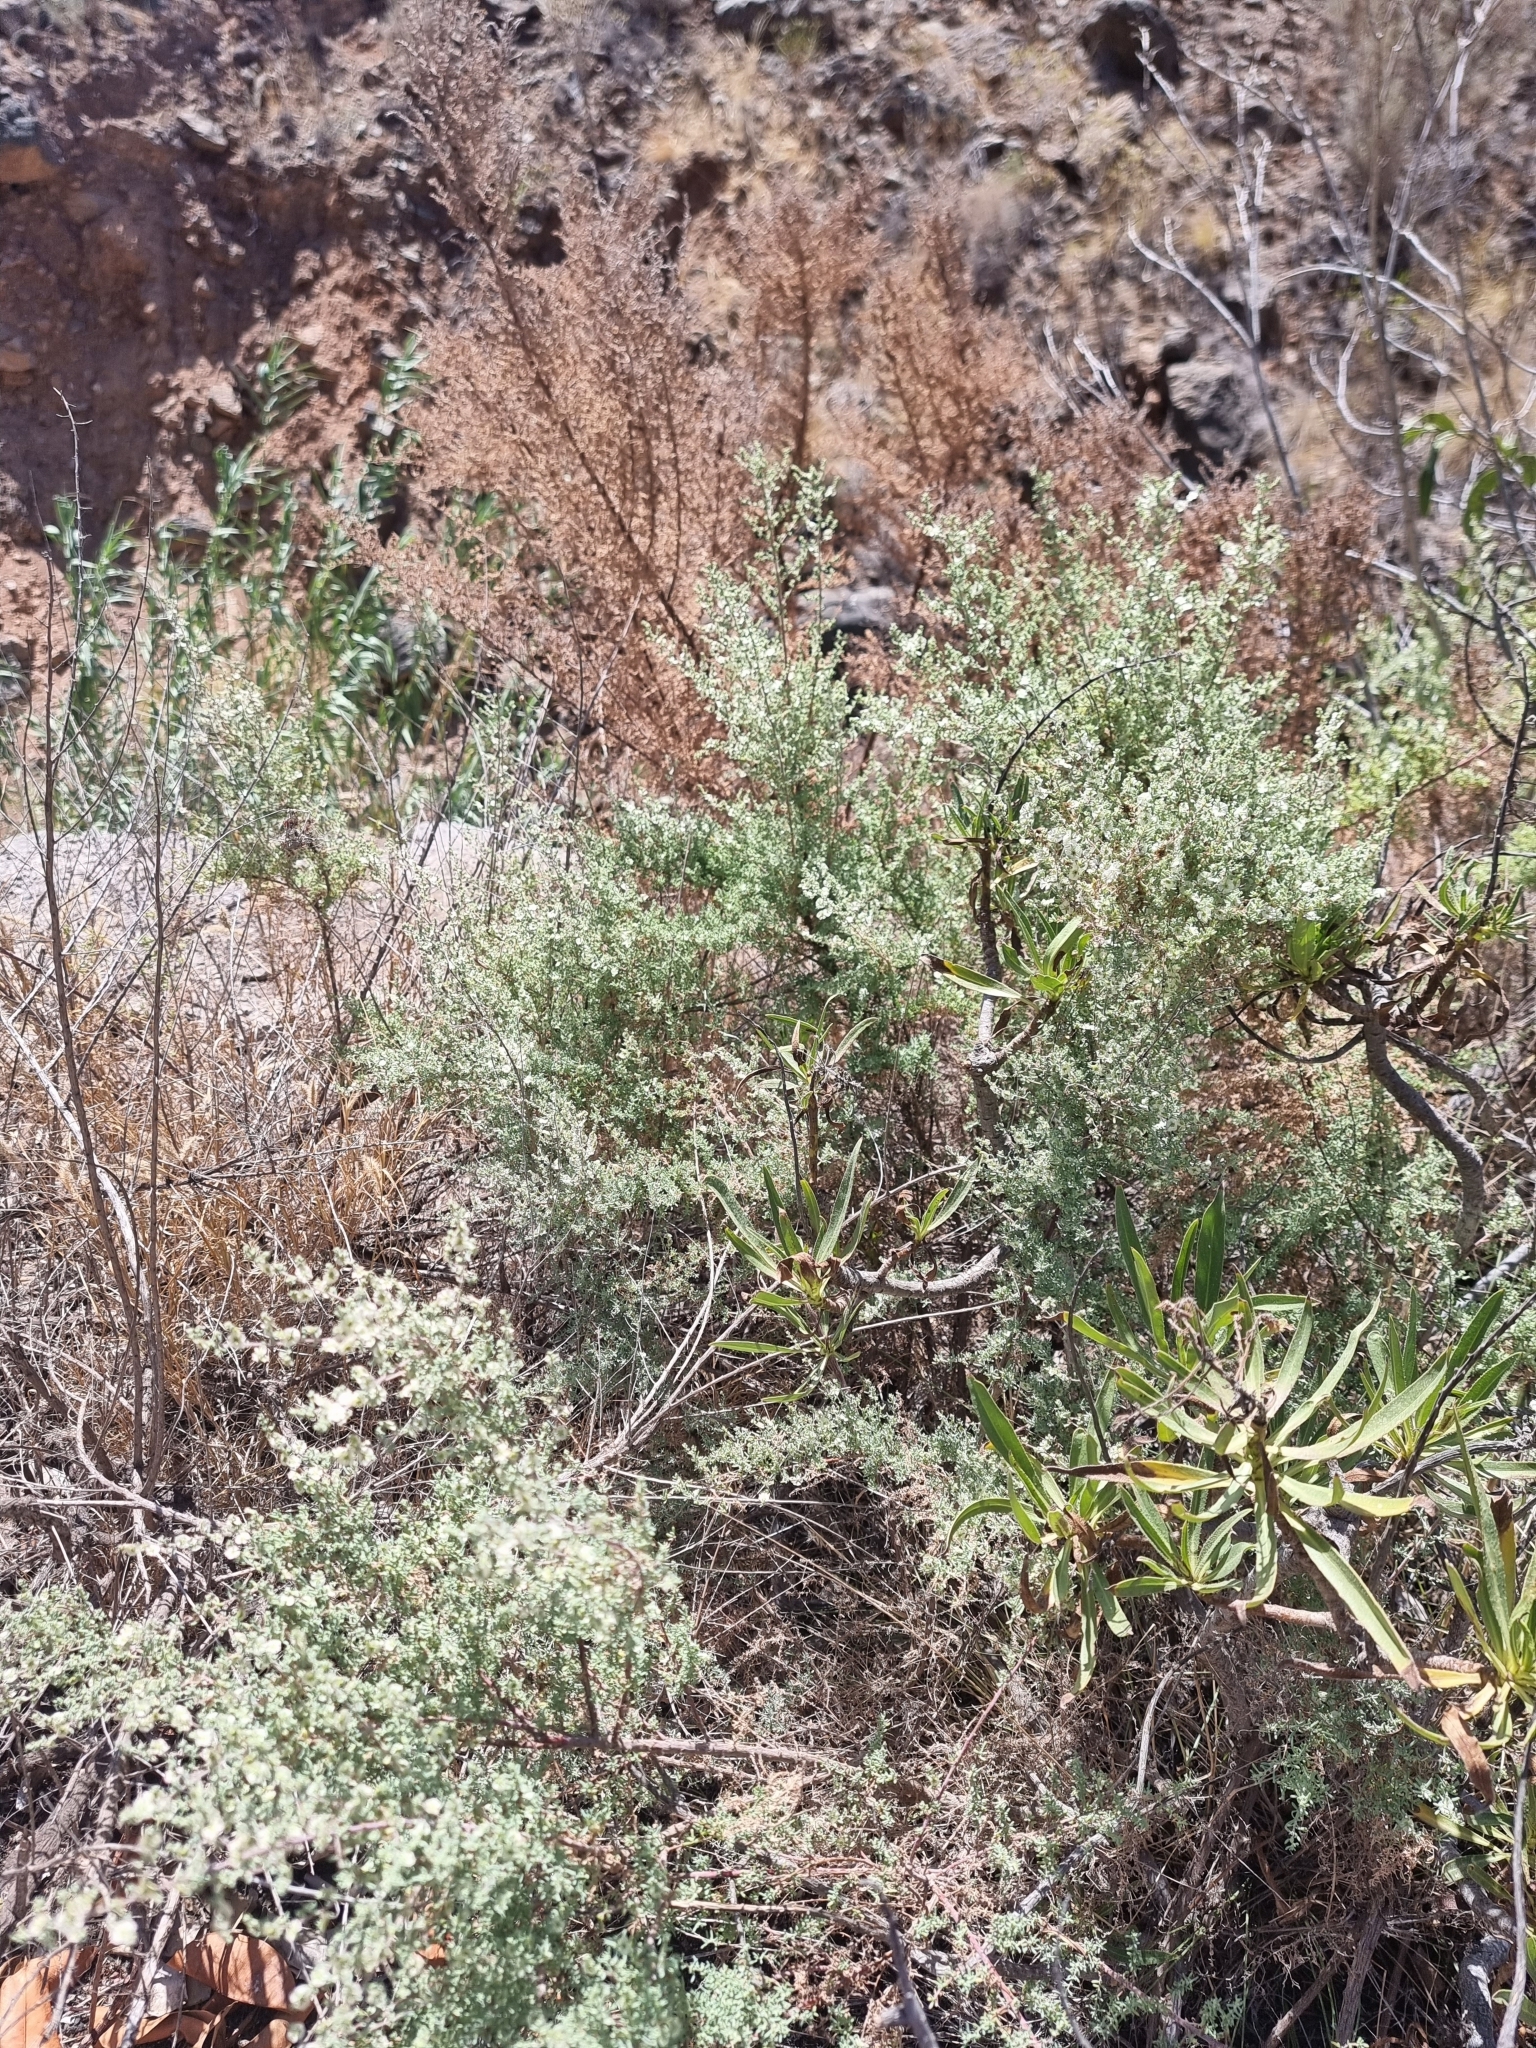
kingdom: Plantae
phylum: Tracheophyta
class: Magnoliopsida
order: Caryophyllales
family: Amaranthaceae
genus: Maireana
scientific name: Maireana brevifolia
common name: Eastern cottonbush
